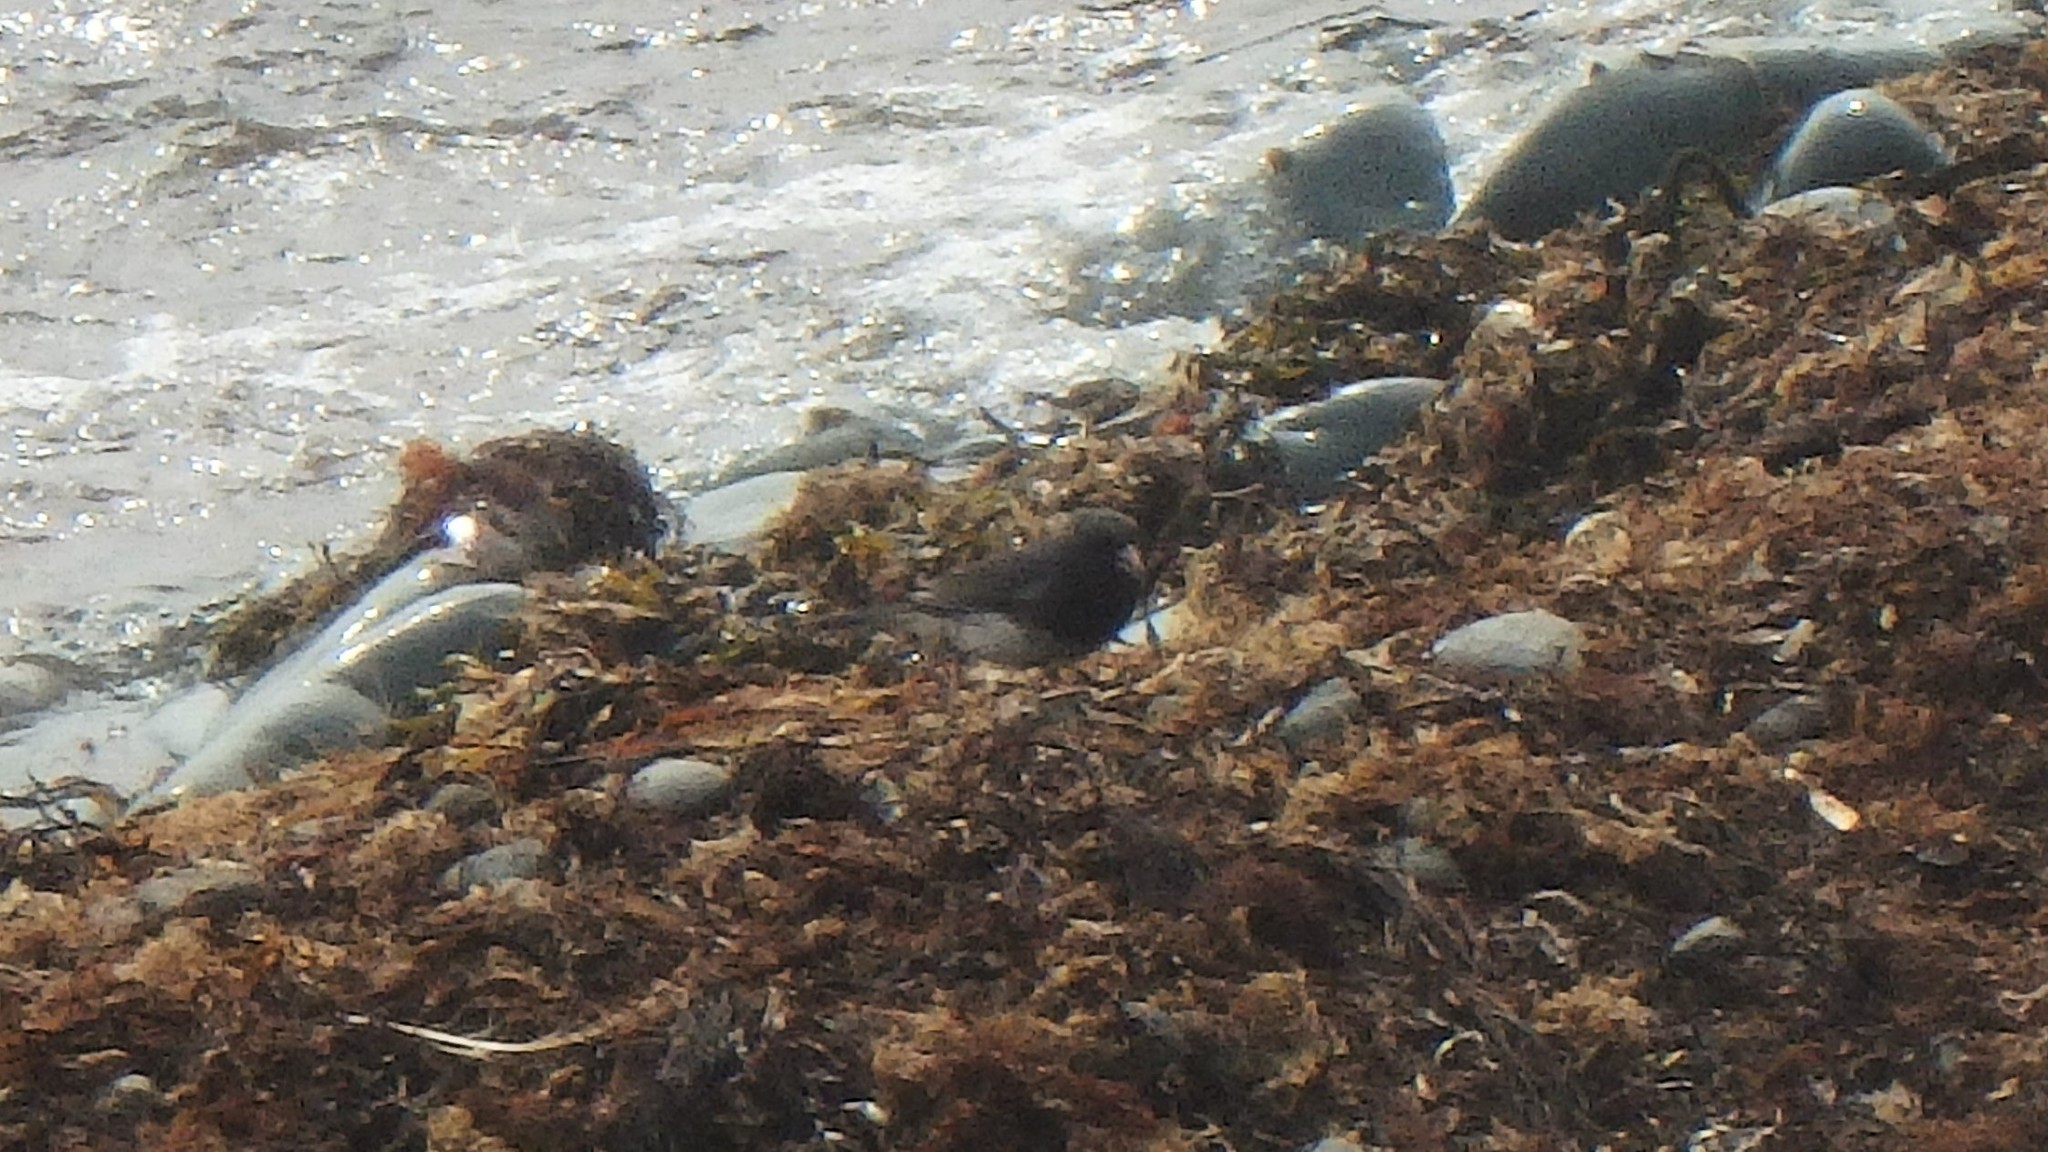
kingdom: Animalia
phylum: Chordata
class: Aves
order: Passeriformes
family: Passerellidae
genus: Junco
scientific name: Junco hyemalis
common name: Dark-eyed junco
